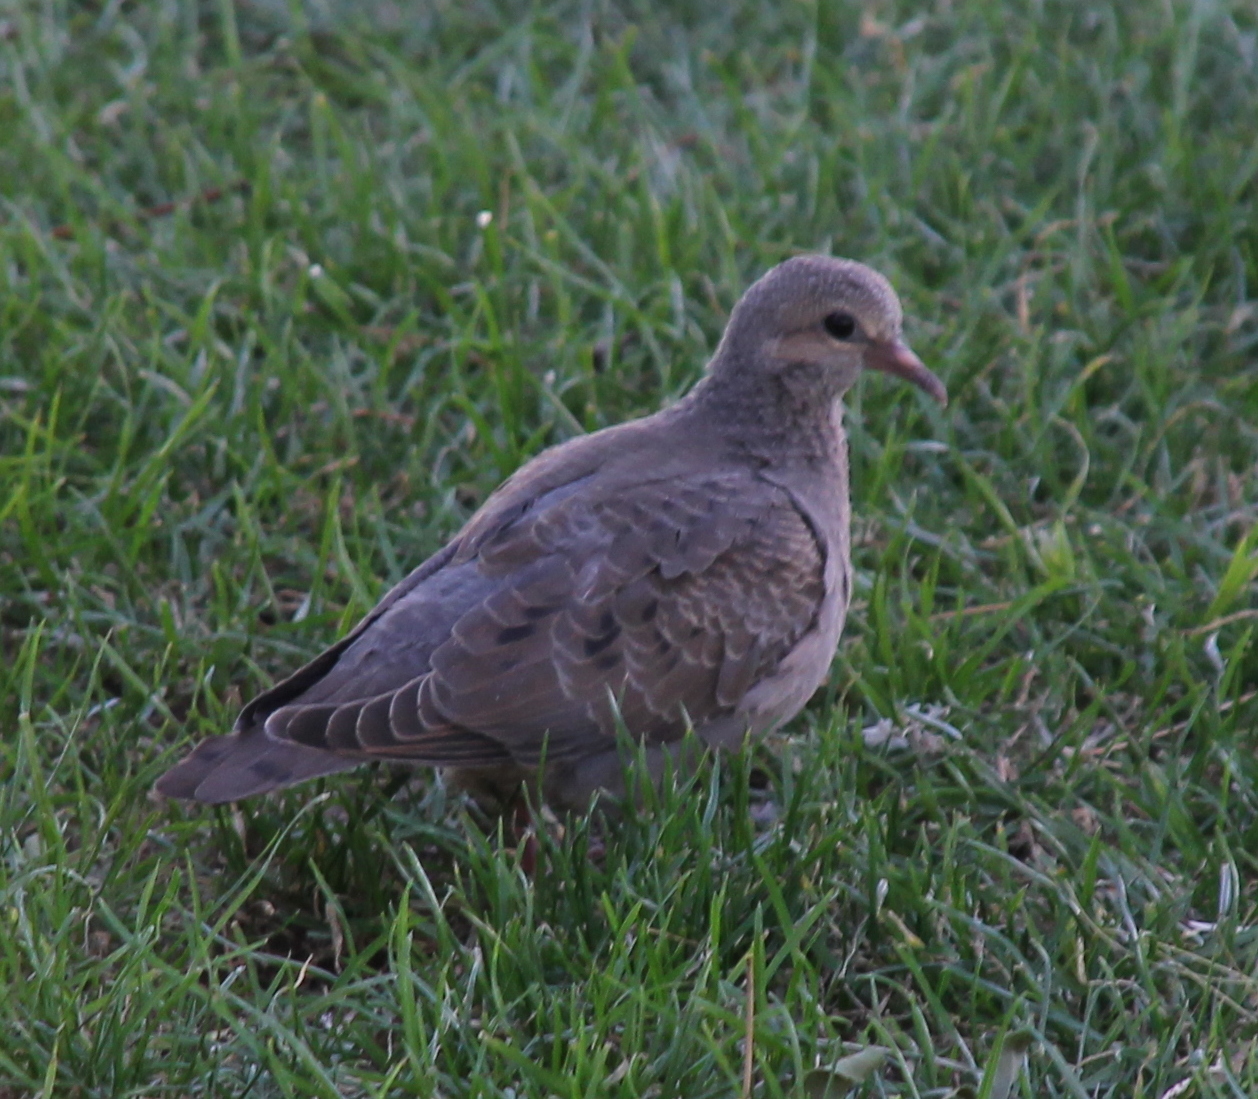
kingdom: Animalia
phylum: Chordata
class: Aves
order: Columbiformes
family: Columbidae
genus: Zenaida
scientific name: Zenaida auriculata
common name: Eared dove
